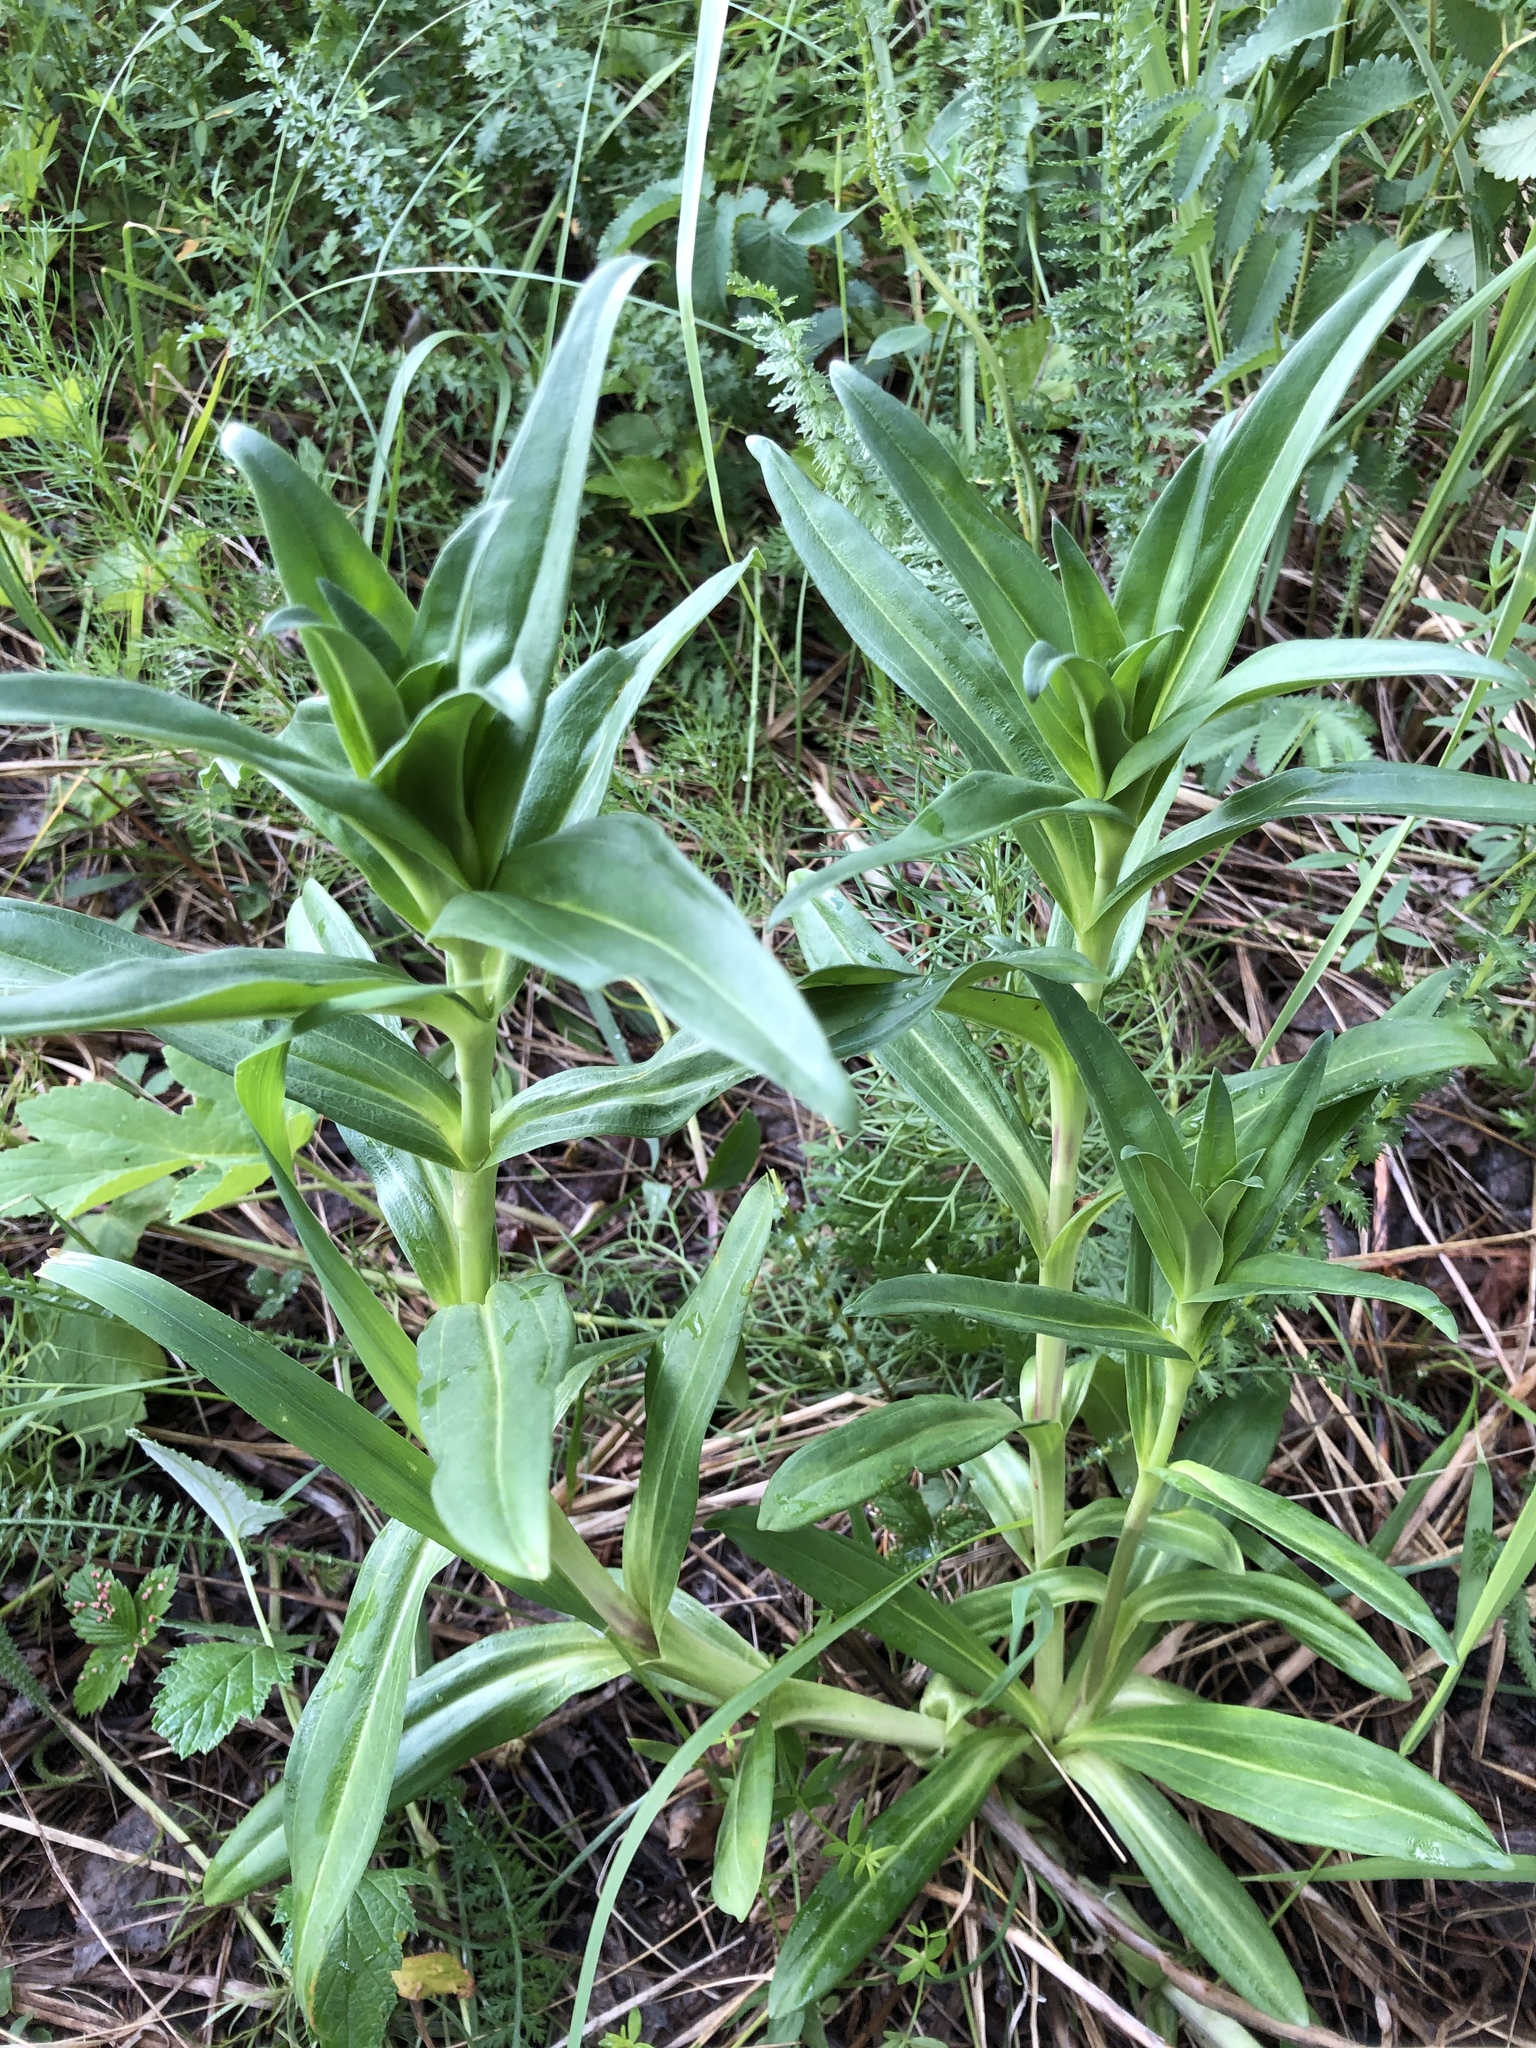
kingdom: Plantae
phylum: Tracheophyta
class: Magnoliopsida
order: Gentianales
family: Gentianaceae
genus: Gentiana
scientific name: Gentiana cruciata
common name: Cross gentian
